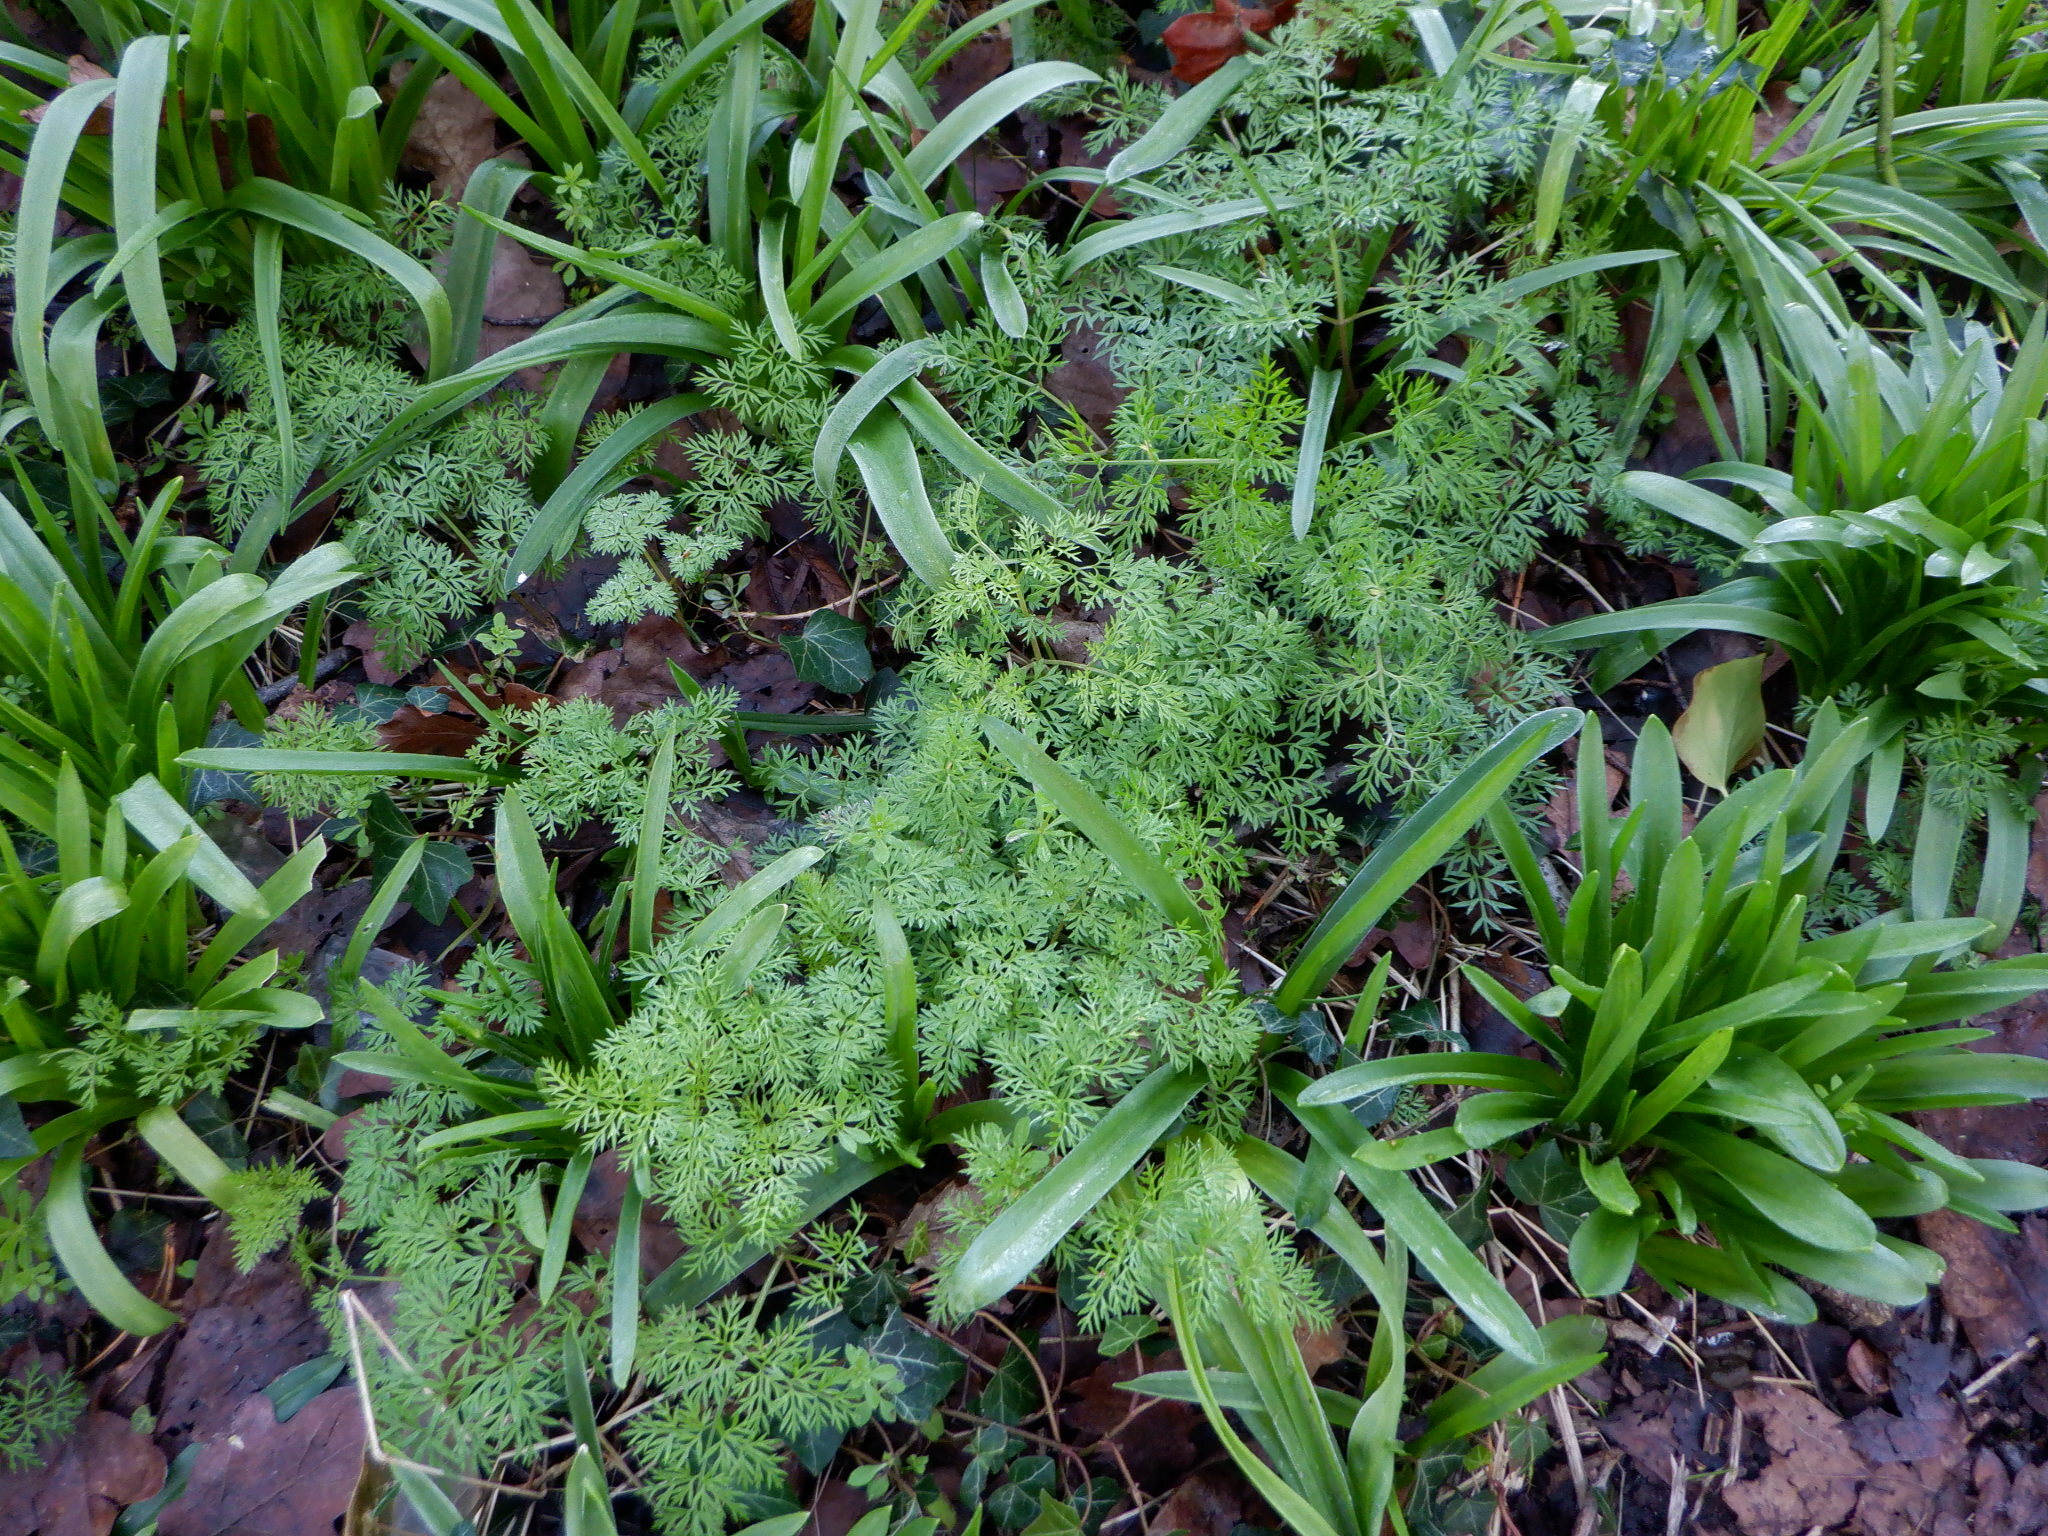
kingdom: Plantae
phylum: Tracheophyta
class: Magnoliopsida
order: Apiales
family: Apiaceae
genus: Conopodium
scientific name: Conopodium majus
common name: Pignut
